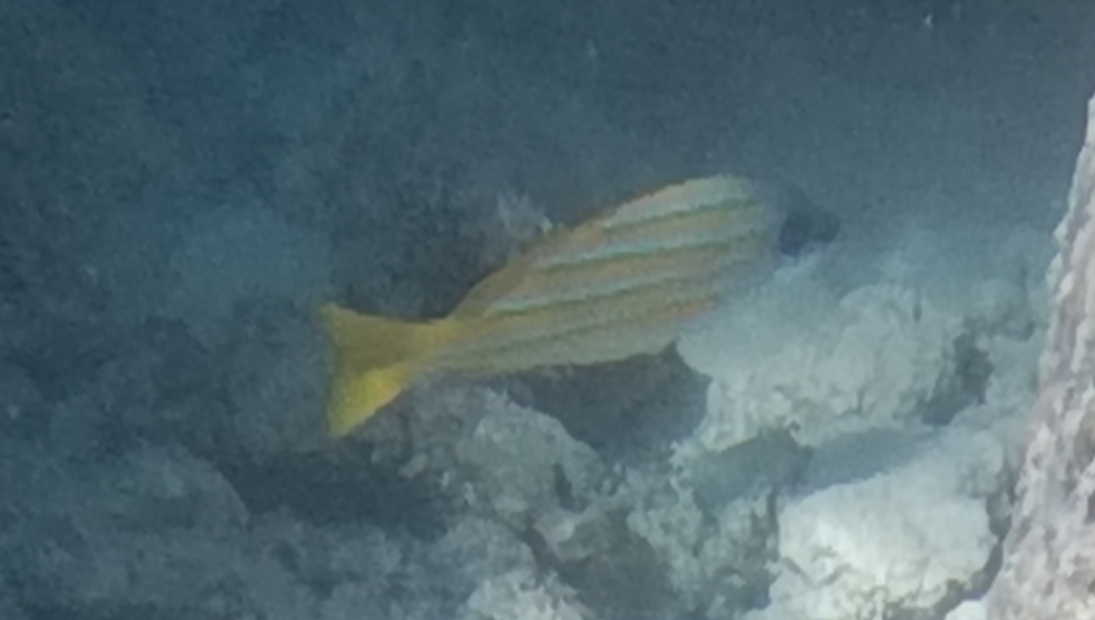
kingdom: Animalia
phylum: Chordata
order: Perciformes
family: Lutjanidae
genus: Lutjanus
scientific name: Lutjanus kasmira
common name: Common bluestripe snapper
